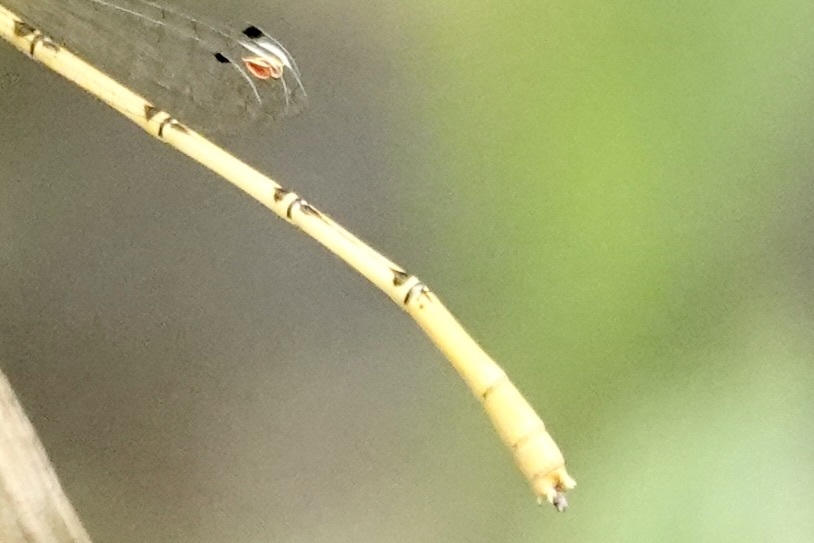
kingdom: Animalia
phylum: Arthropoda
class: Insecta
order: Odonata
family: Coenagrionidae
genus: Ischnura
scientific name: Ischnura hastata
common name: Citrine forktail
